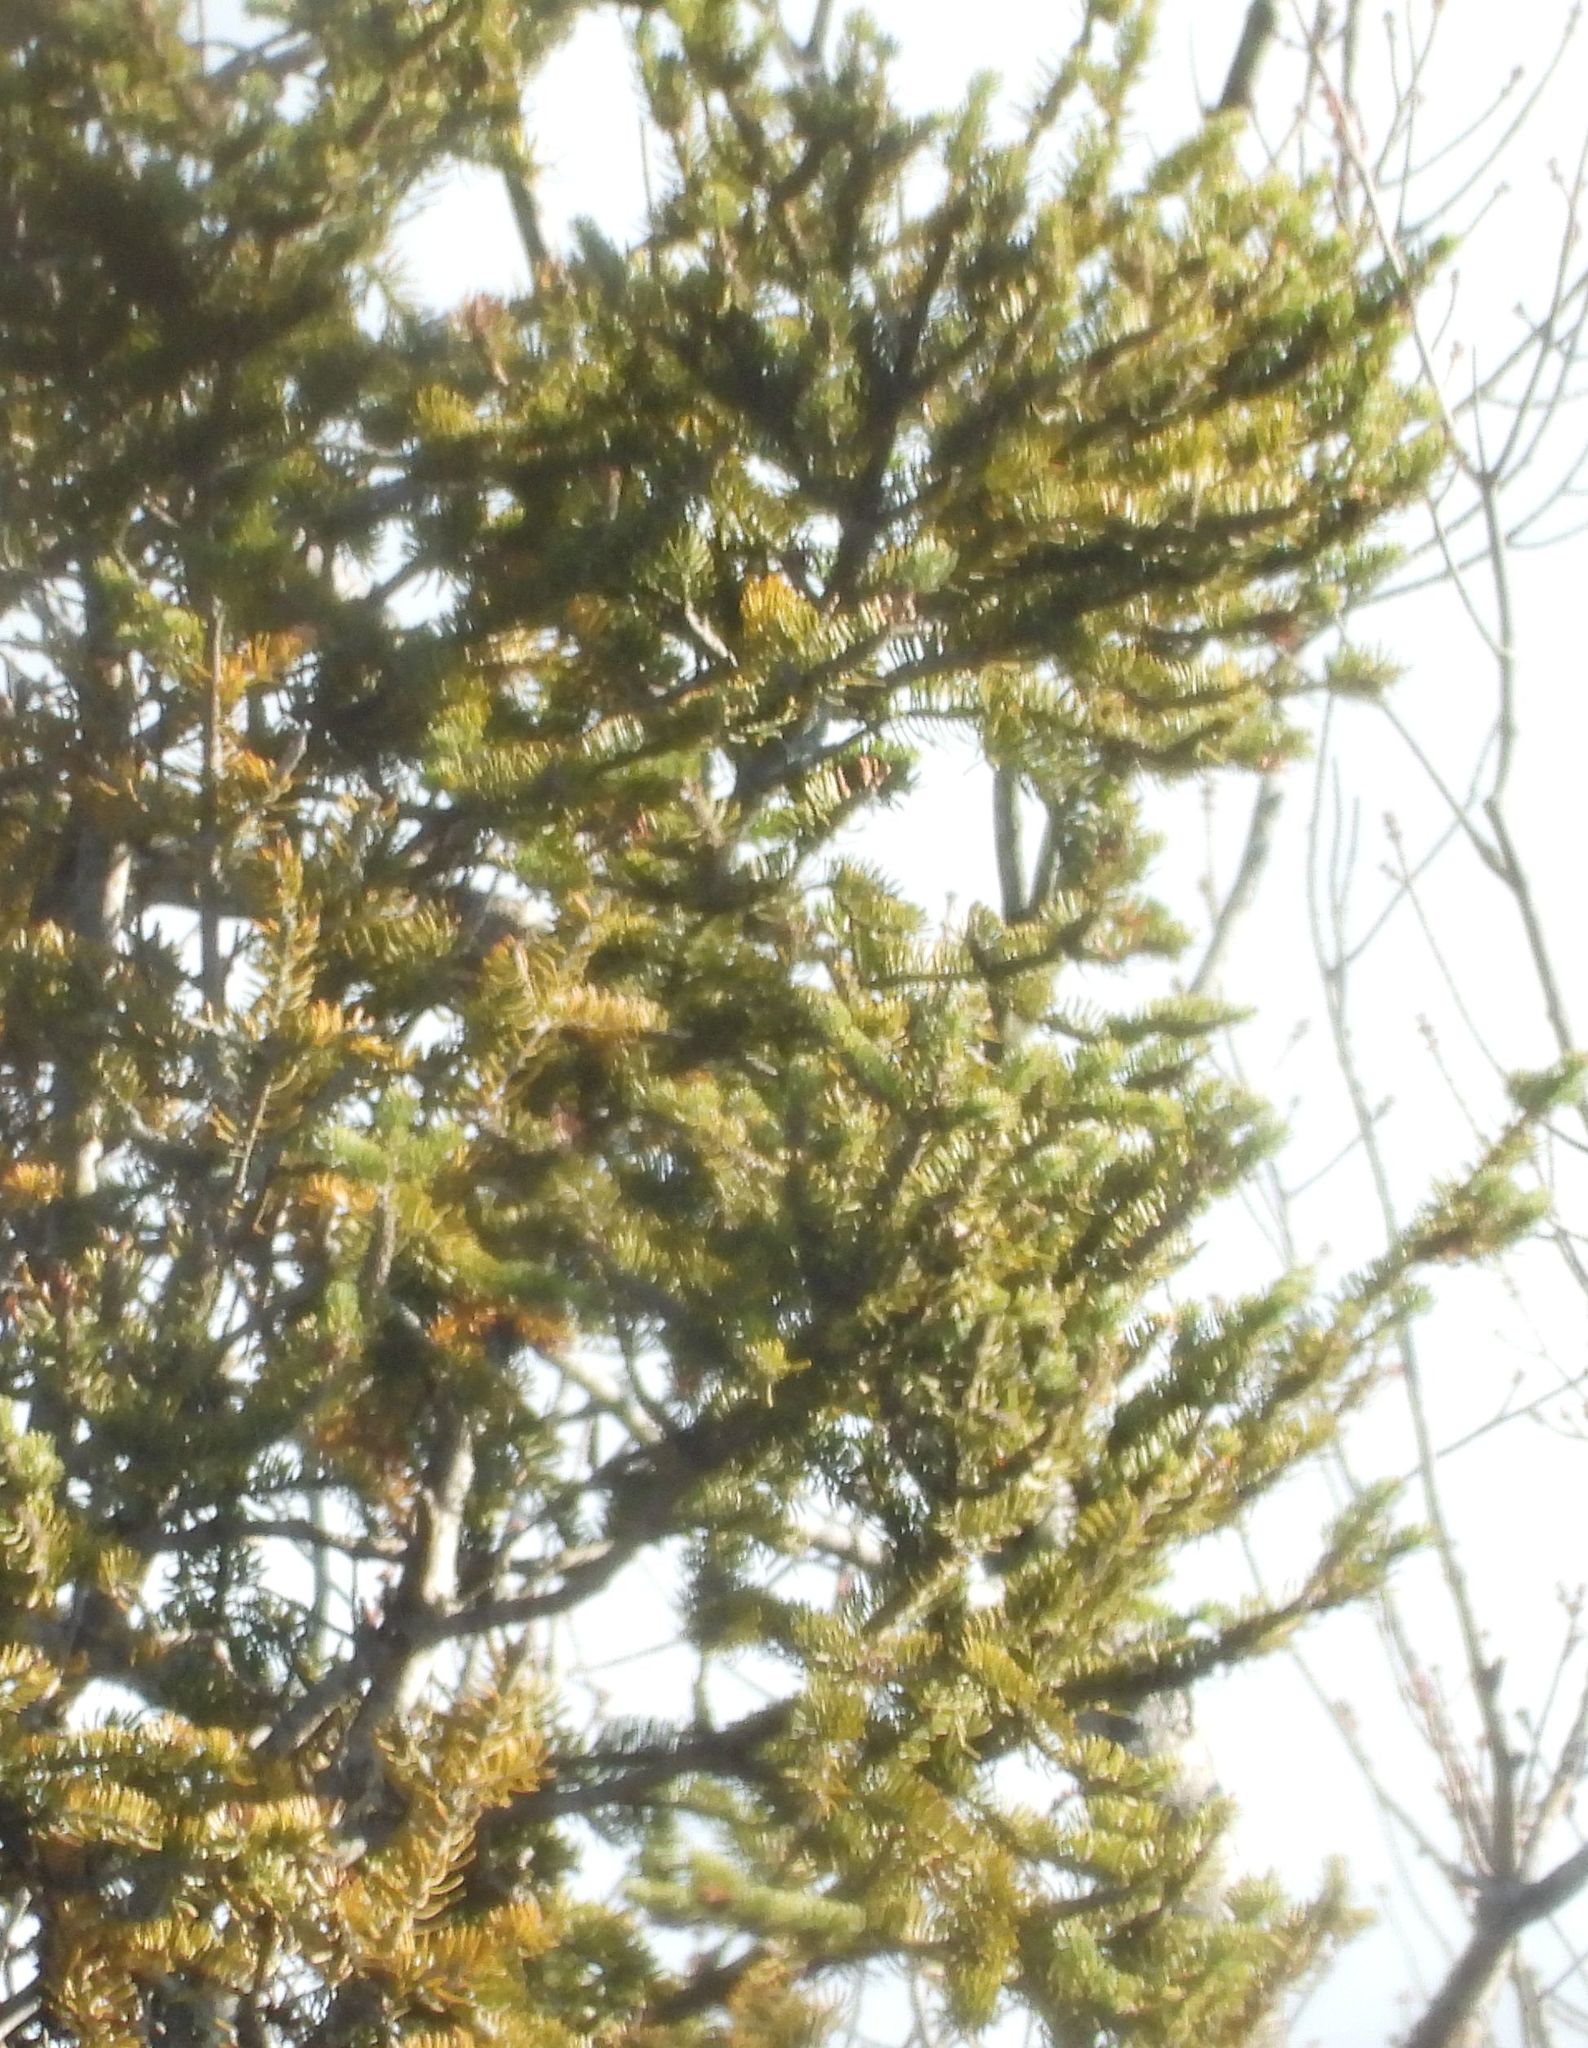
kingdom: Plantae
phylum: Tracheophyta
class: Pinopsida
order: Pinales
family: Pinaceae
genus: Abies
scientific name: Abies balsamea
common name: Balsam fir
